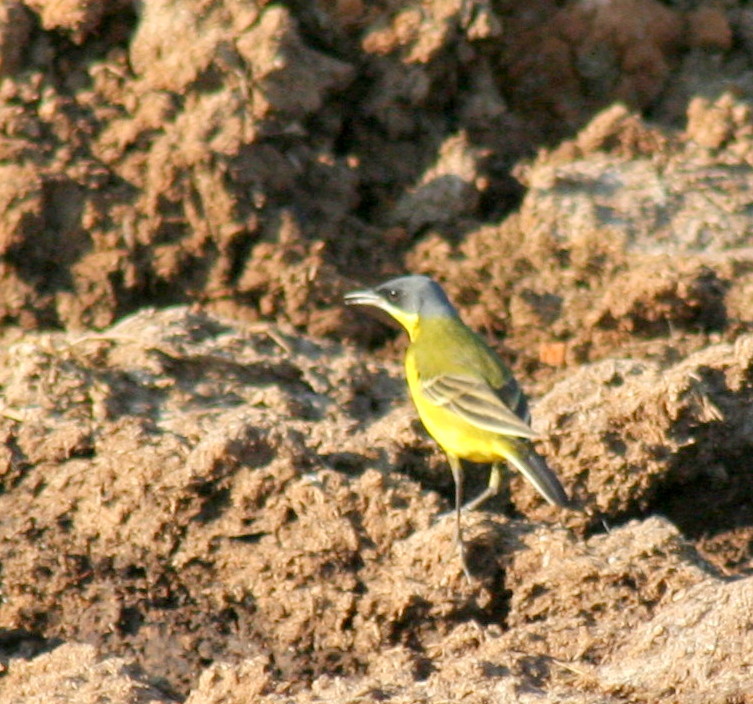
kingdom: Animalia
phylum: Chordata
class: Aves
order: Passeriformes
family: Motacillidae
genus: Motacilla
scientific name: Motacilla flava
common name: Western yellow wagtail
